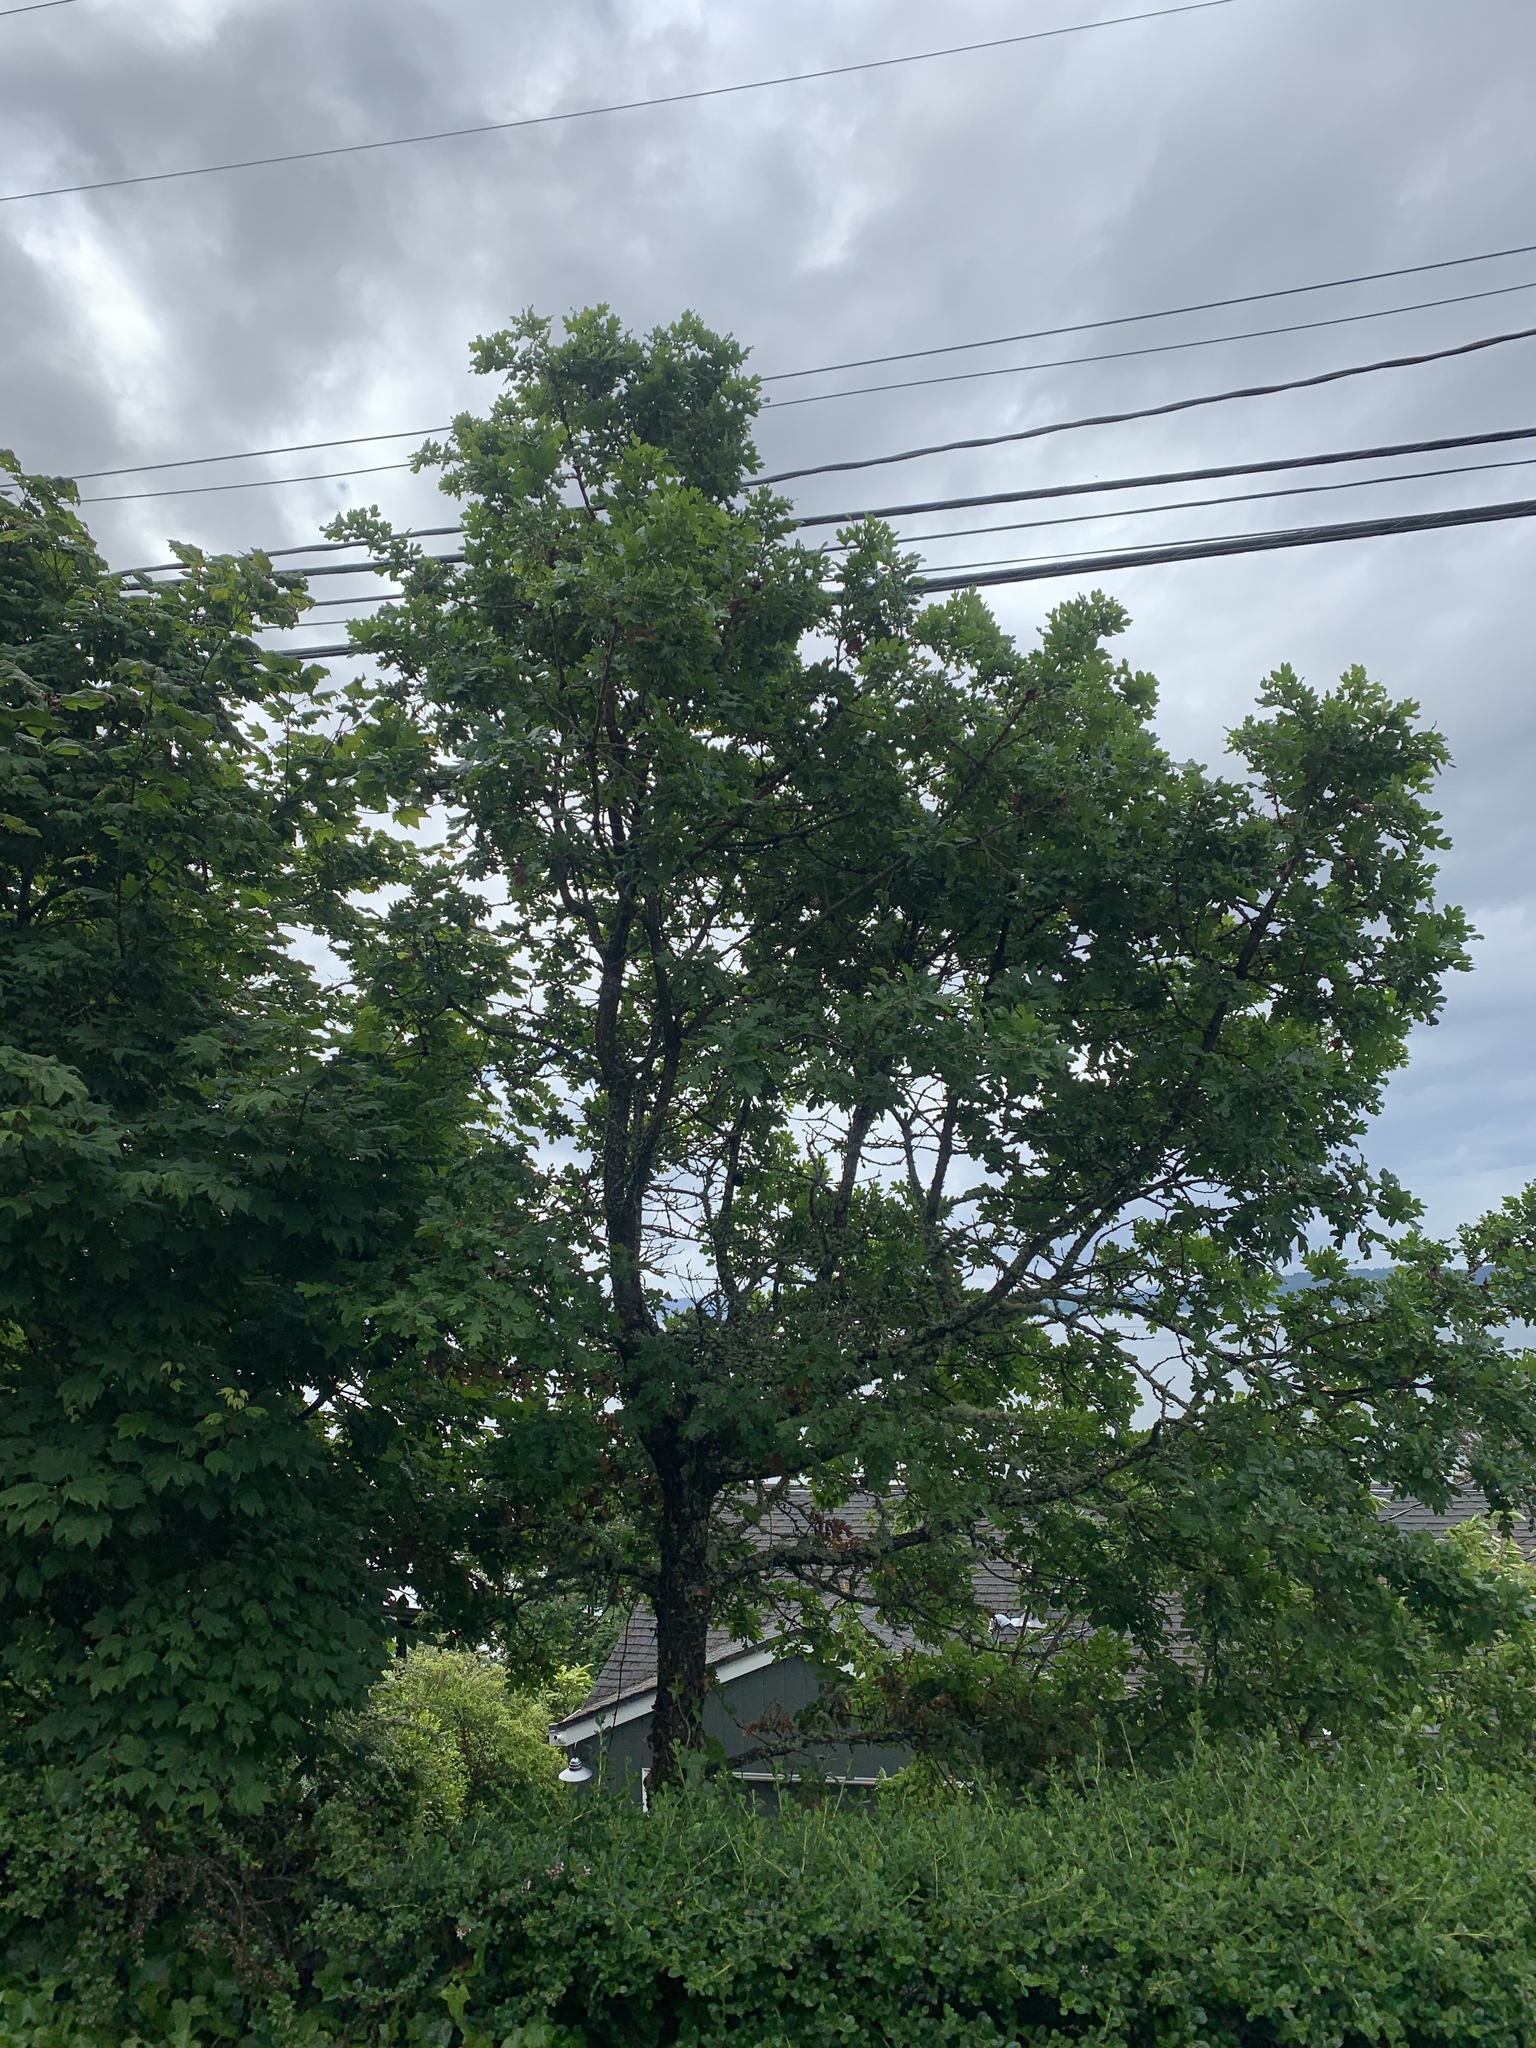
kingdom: Plantae
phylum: Tracheophyta
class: Magnoliopsida
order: Fagales
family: Fagaceae
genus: Quercus
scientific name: Quercus garryana
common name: Garry oak
